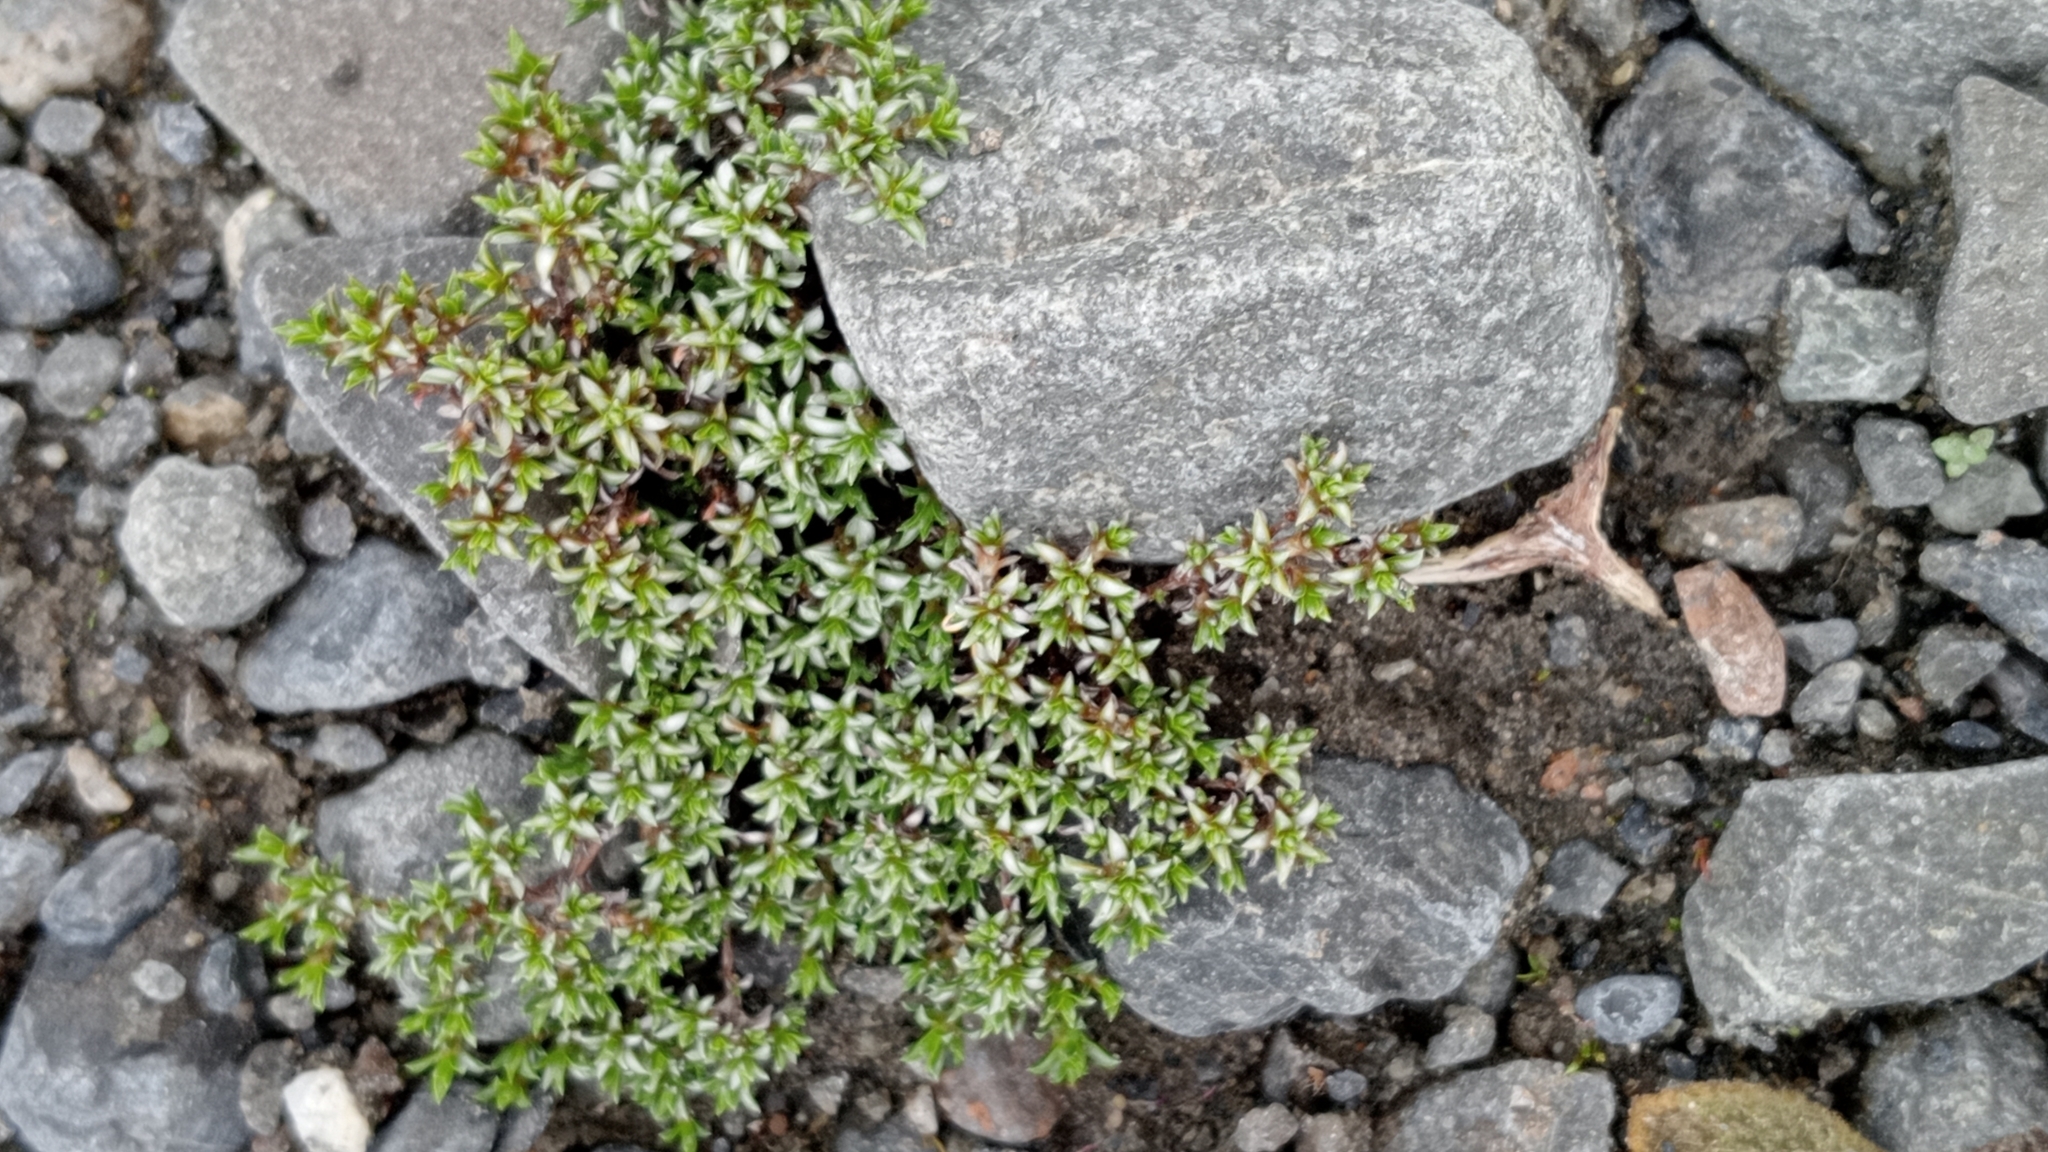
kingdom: Plantae
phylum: Tracheophyta
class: Magnoliopsida
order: Asterales
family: Asteraceae
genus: Raoulia
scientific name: Raoulia tenuicaulis
